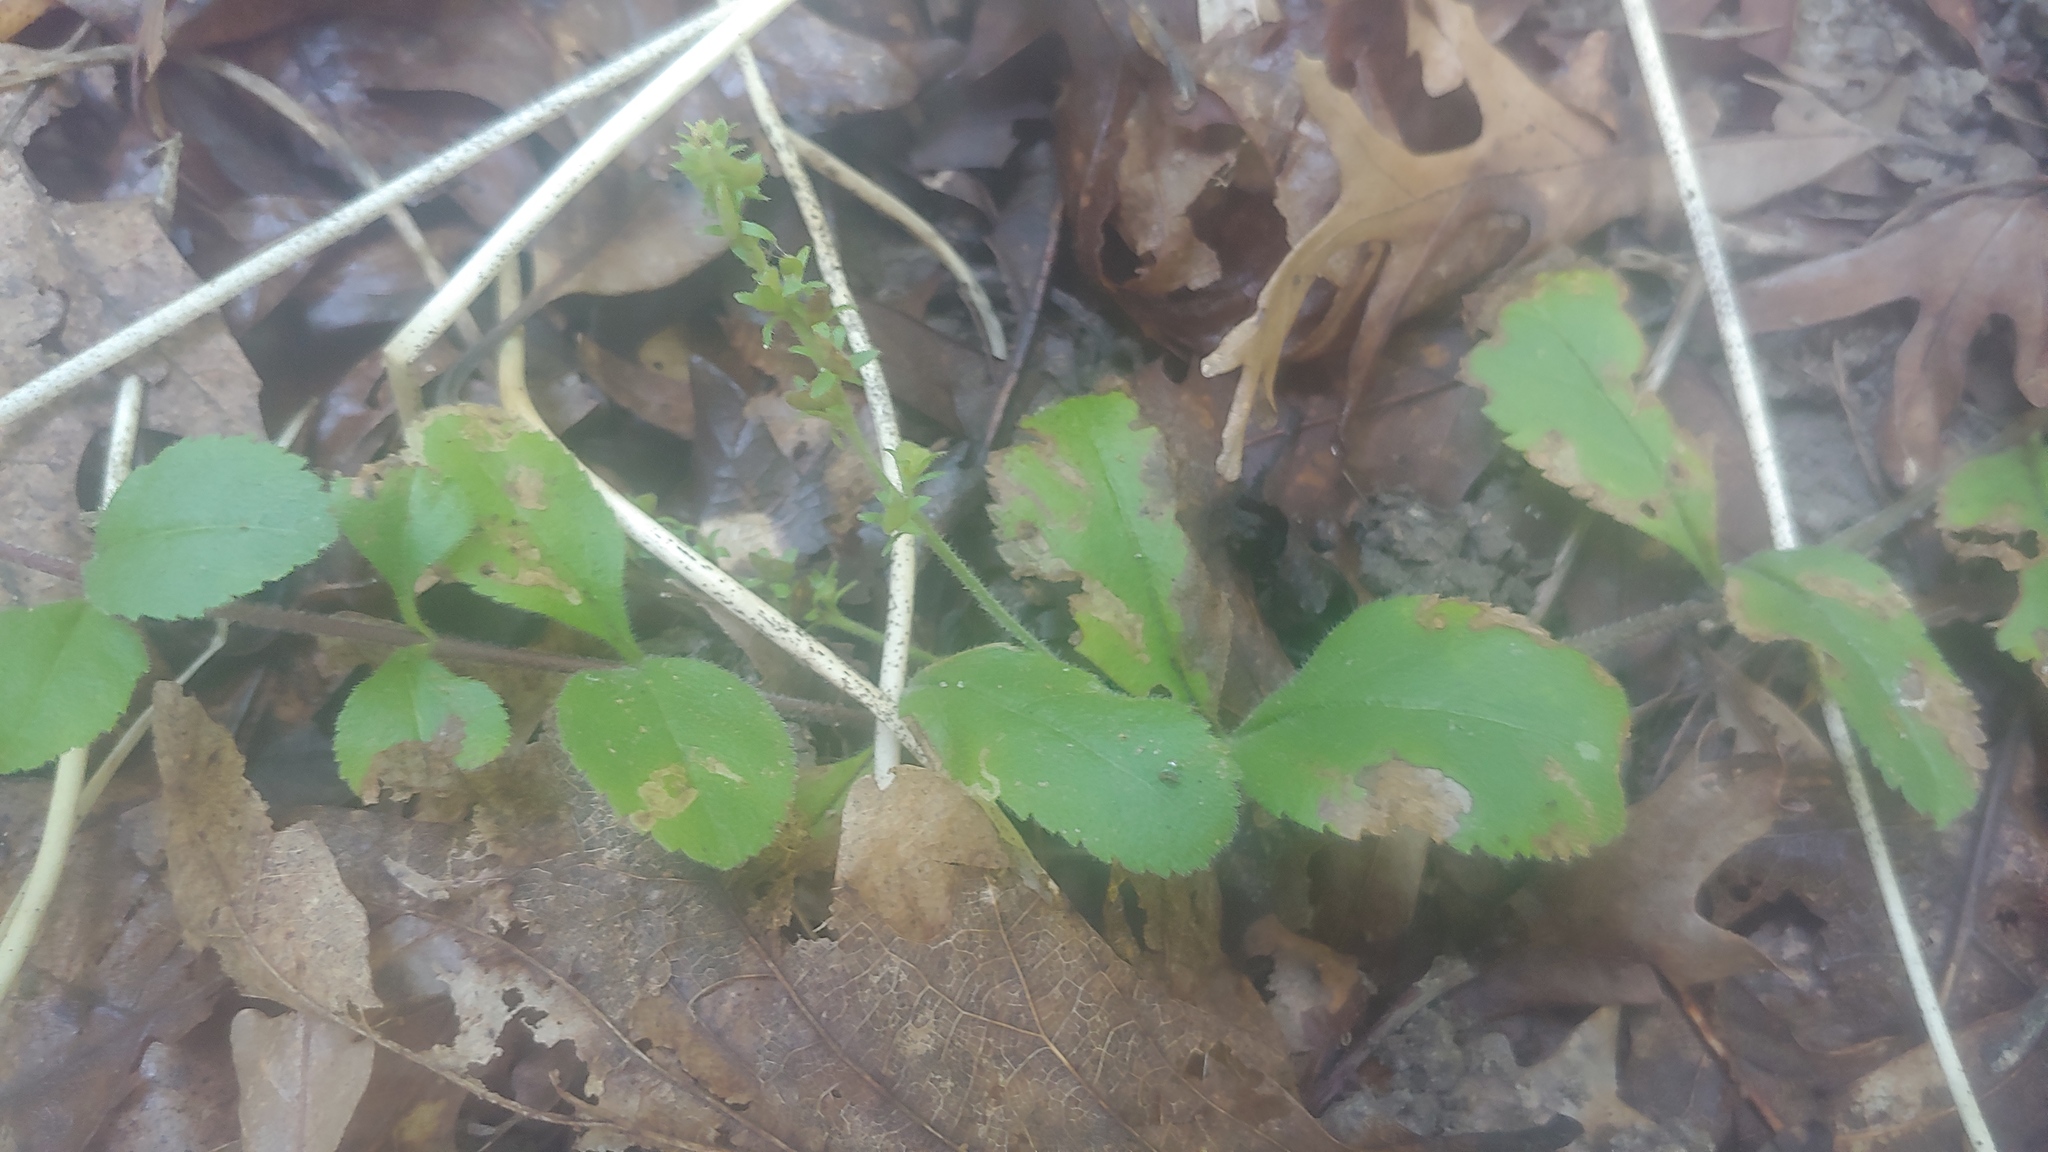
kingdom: Plantae
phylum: Tracheophyta
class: Magnoliopsida
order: Lamiales
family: Plantaginaceae
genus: Veronica
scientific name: Veronica officinalis
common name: Common speedwell
